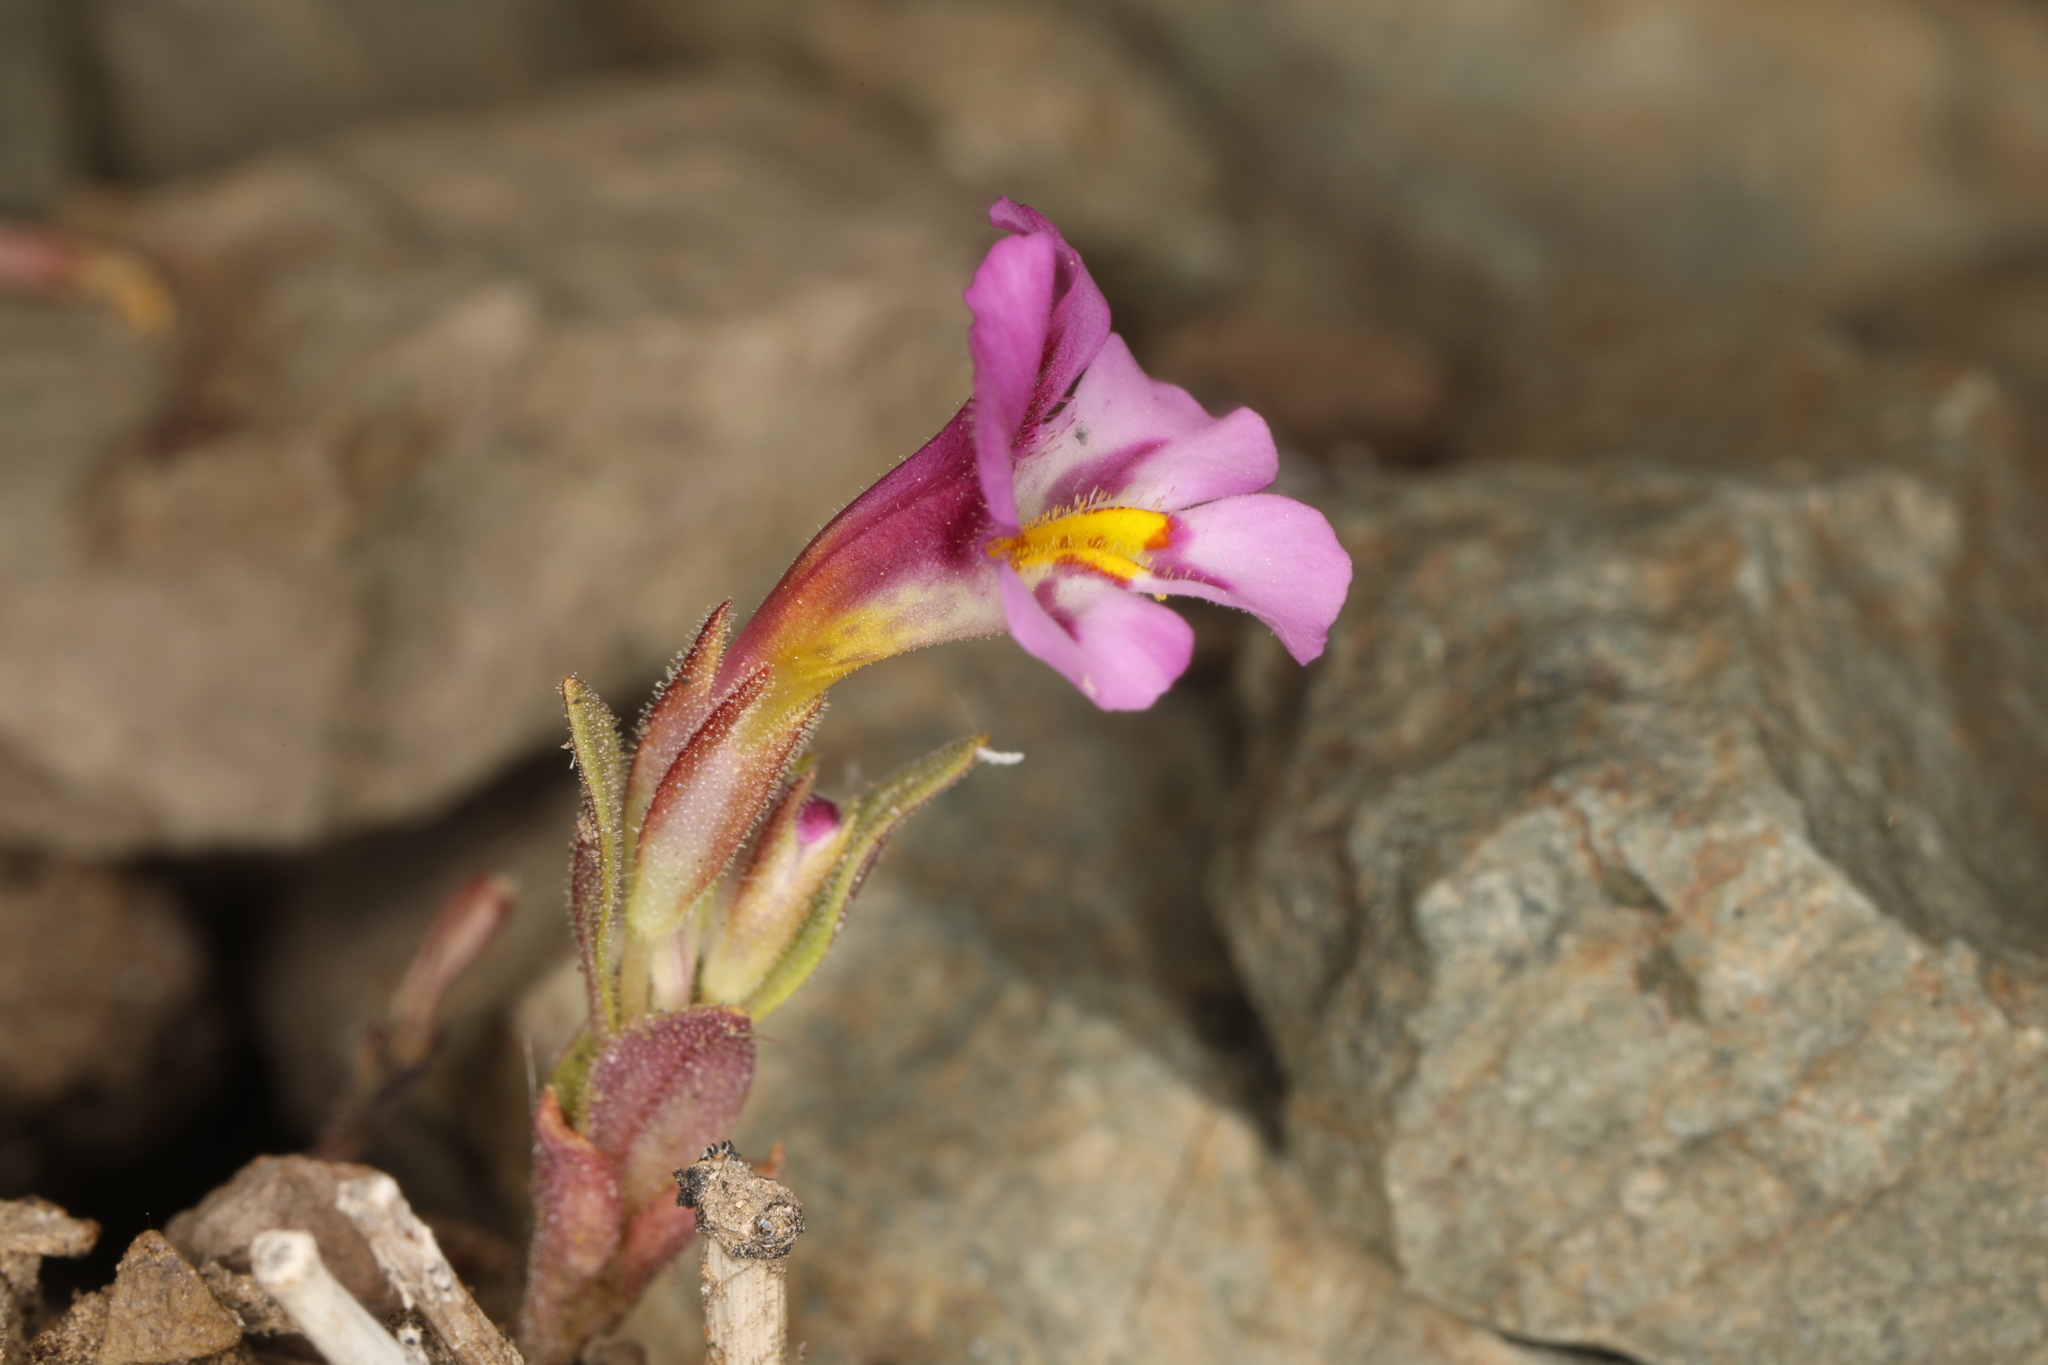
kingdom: Plantae
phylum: Tracheophyta
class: Magnoliopsida
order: Lamiales
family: Phrymaceae
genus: Diplacus
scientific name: Diplacus mephiticus
